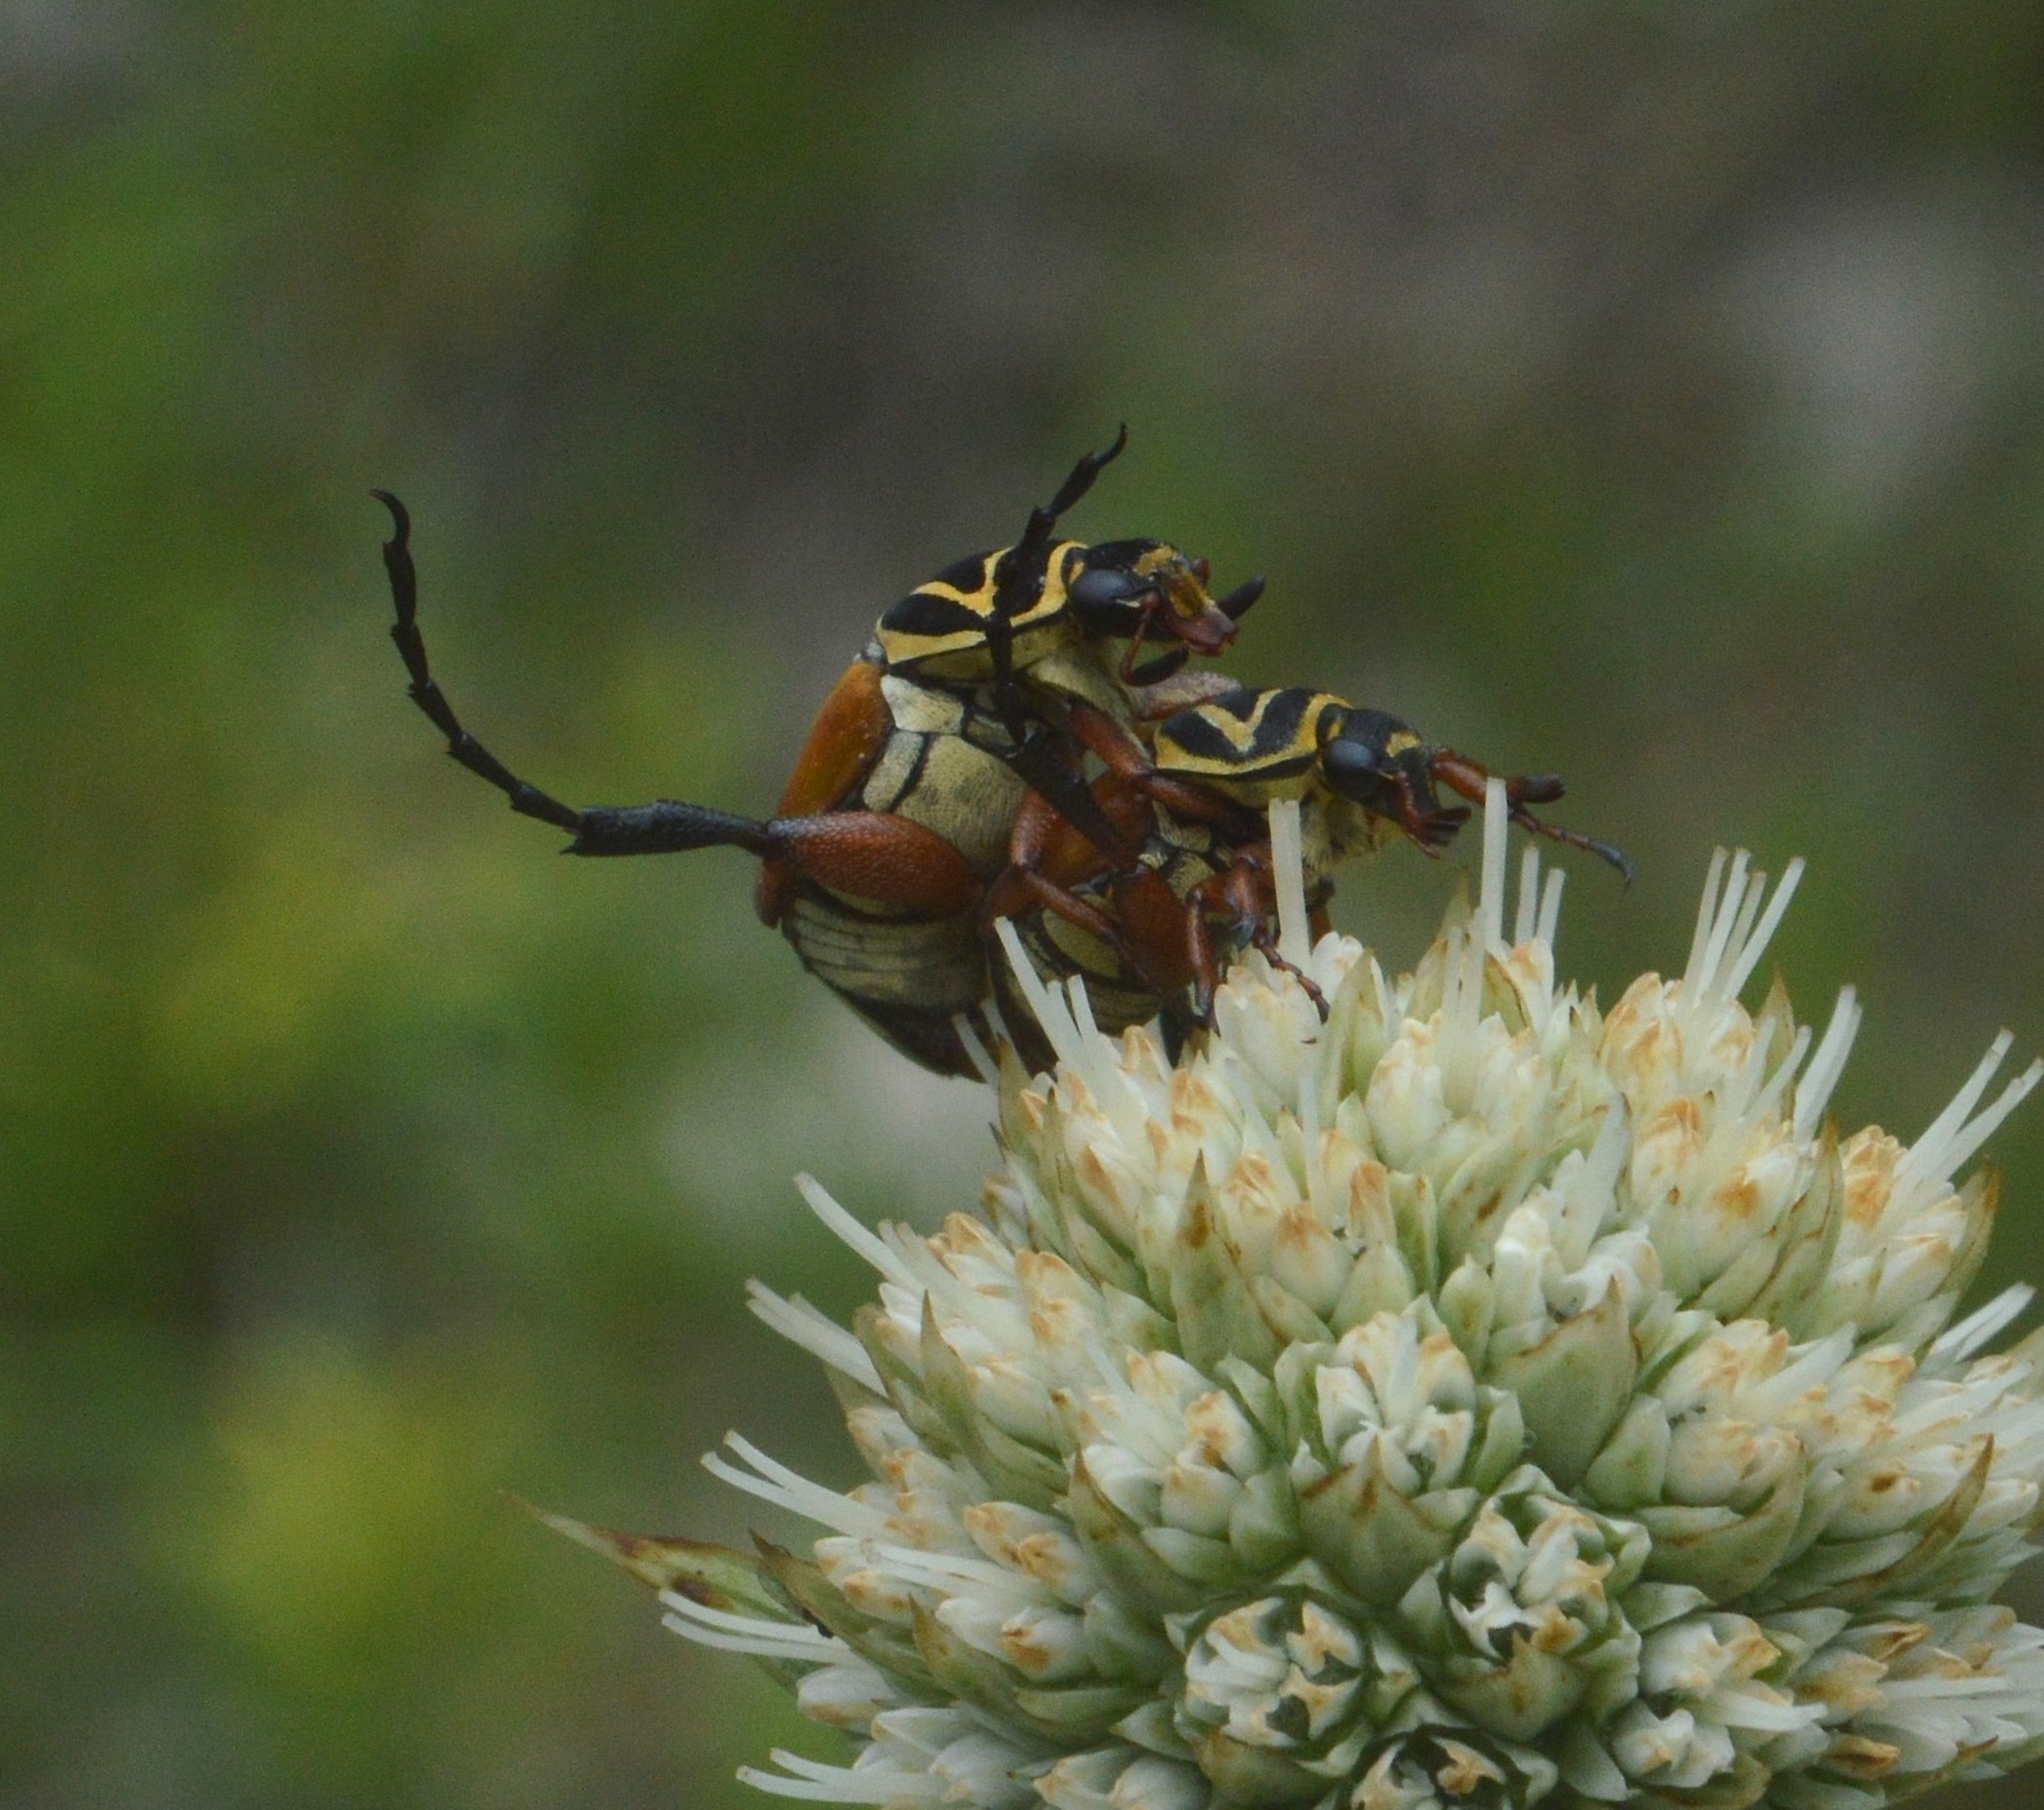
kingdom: Animalia
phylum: Arthropoda
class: Insecta
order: Coleoptera
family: Scarabaeidae
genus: Trigonopeltastes
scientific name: Trigonopeltastes delta
